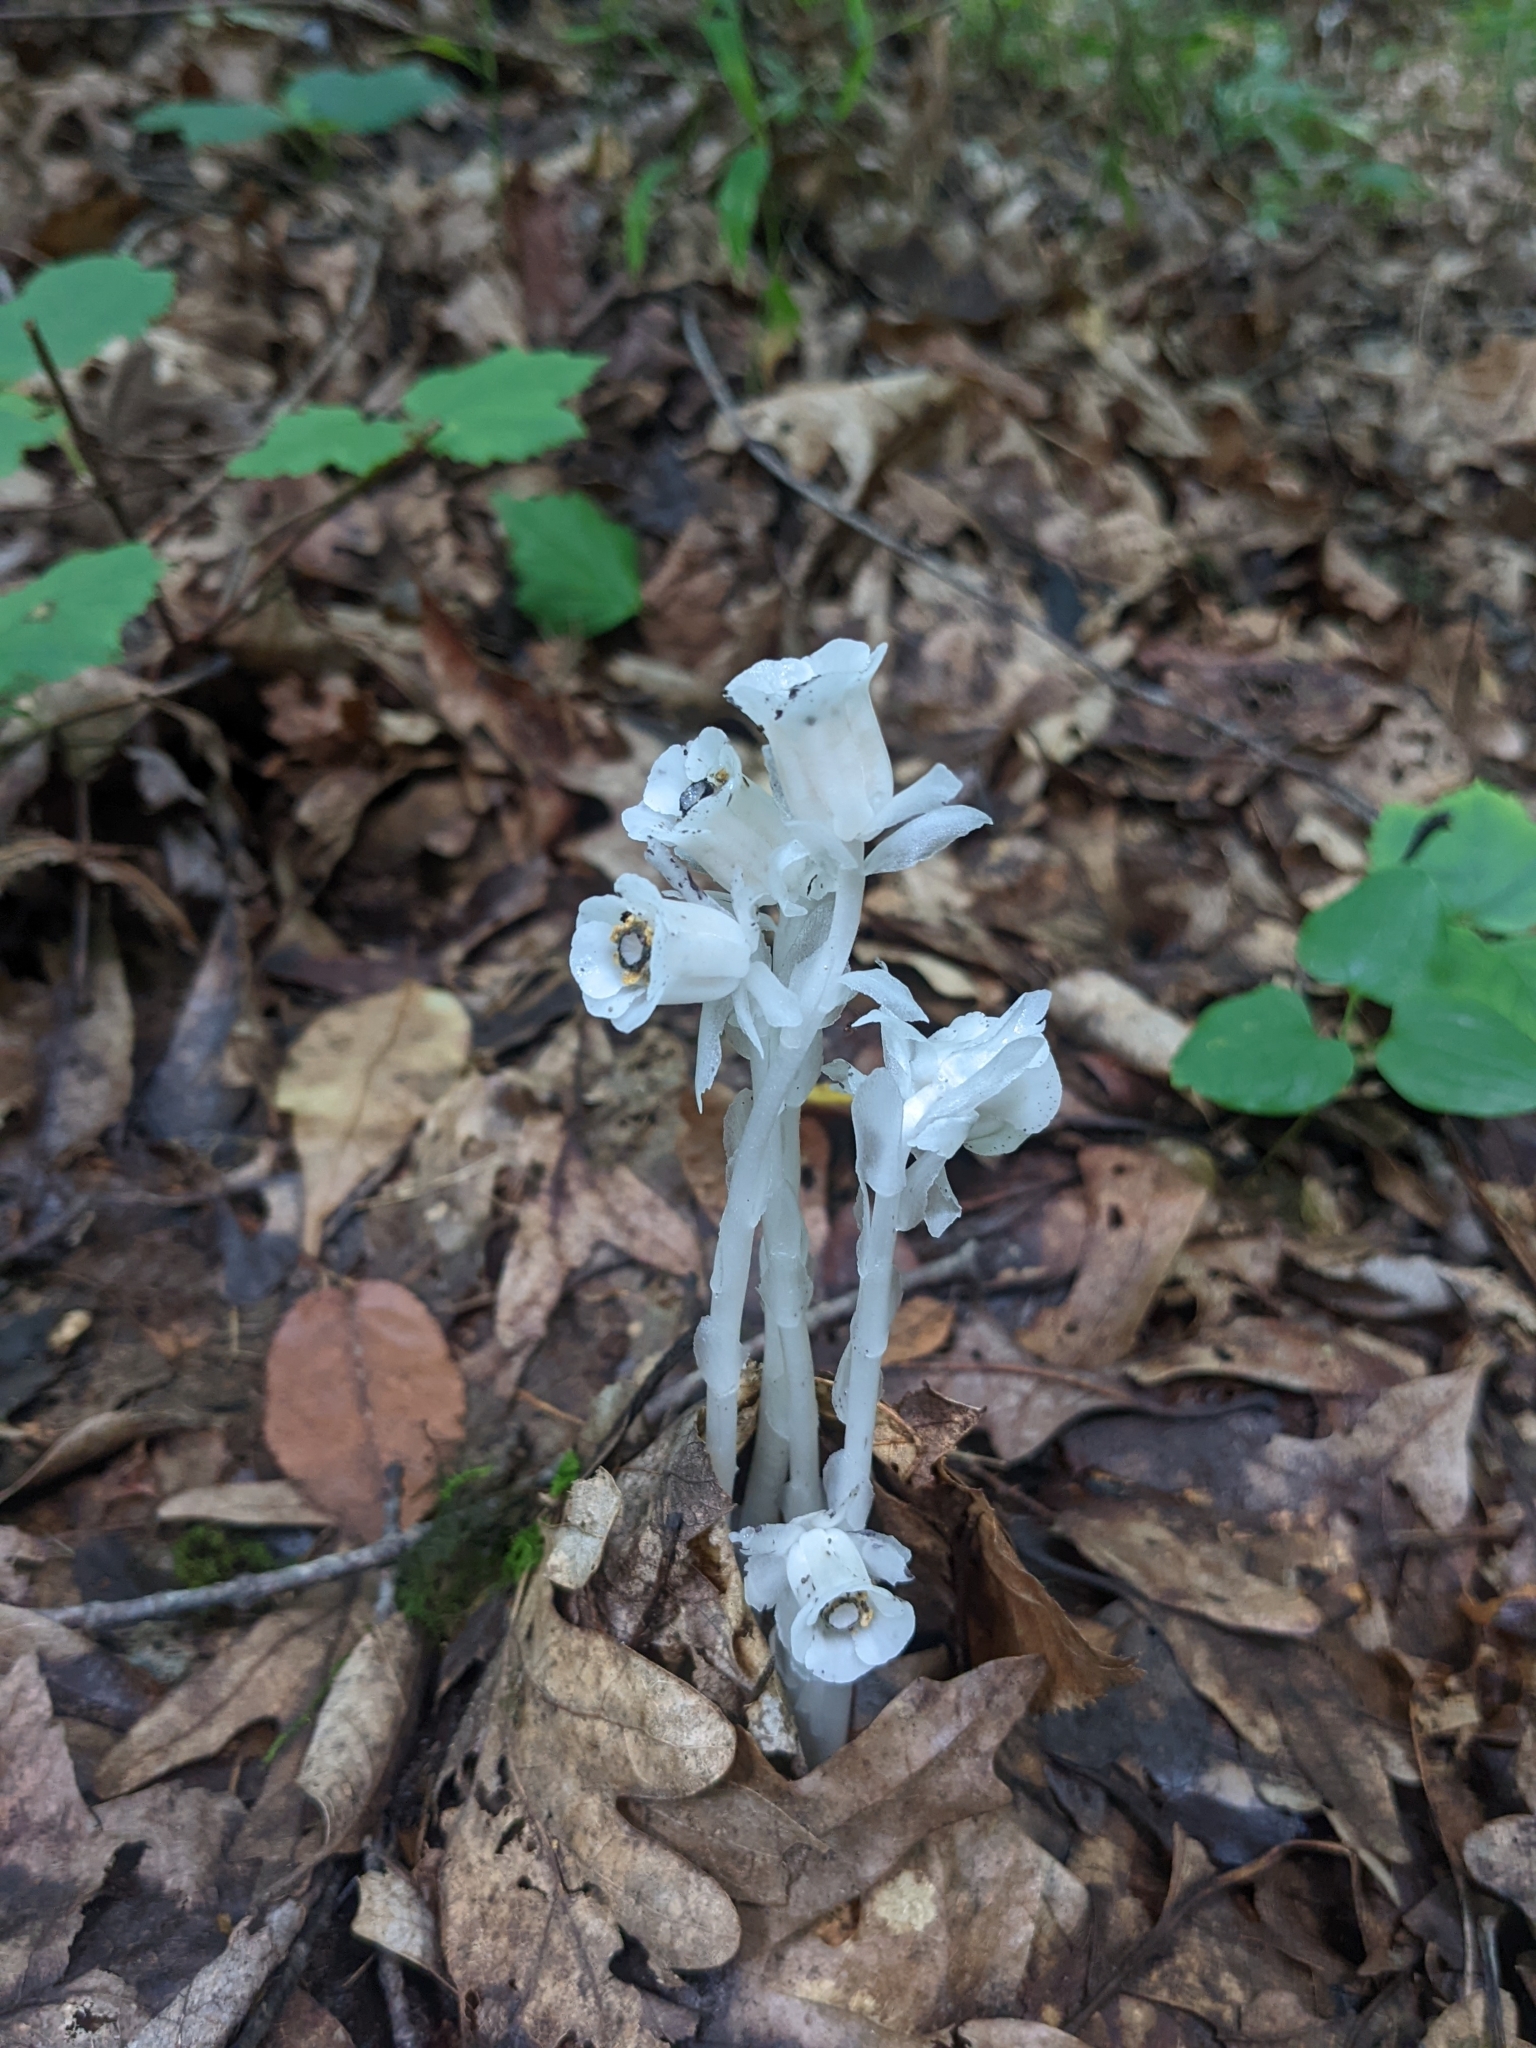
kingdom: Plantae
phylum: Tracheophyta
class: Magnoliopsida
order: Ericales
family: Ericaceae
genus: Monotropa
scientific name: Monotropa uniflora
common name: Convulsion root
